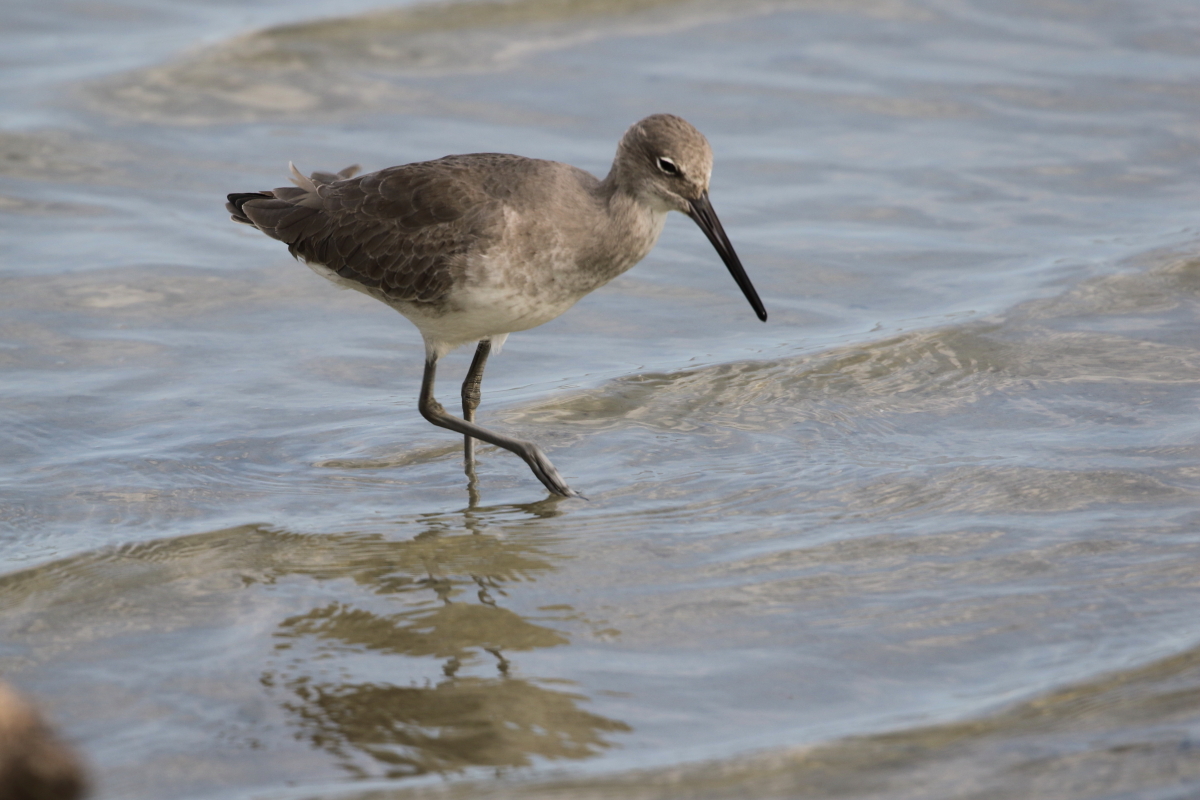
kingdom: Animalia
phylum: Chordata
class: Aves
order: Charadriiformes
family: Scolopacidae
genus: Tringa
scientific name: Tringa semipalmata
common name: Willet
